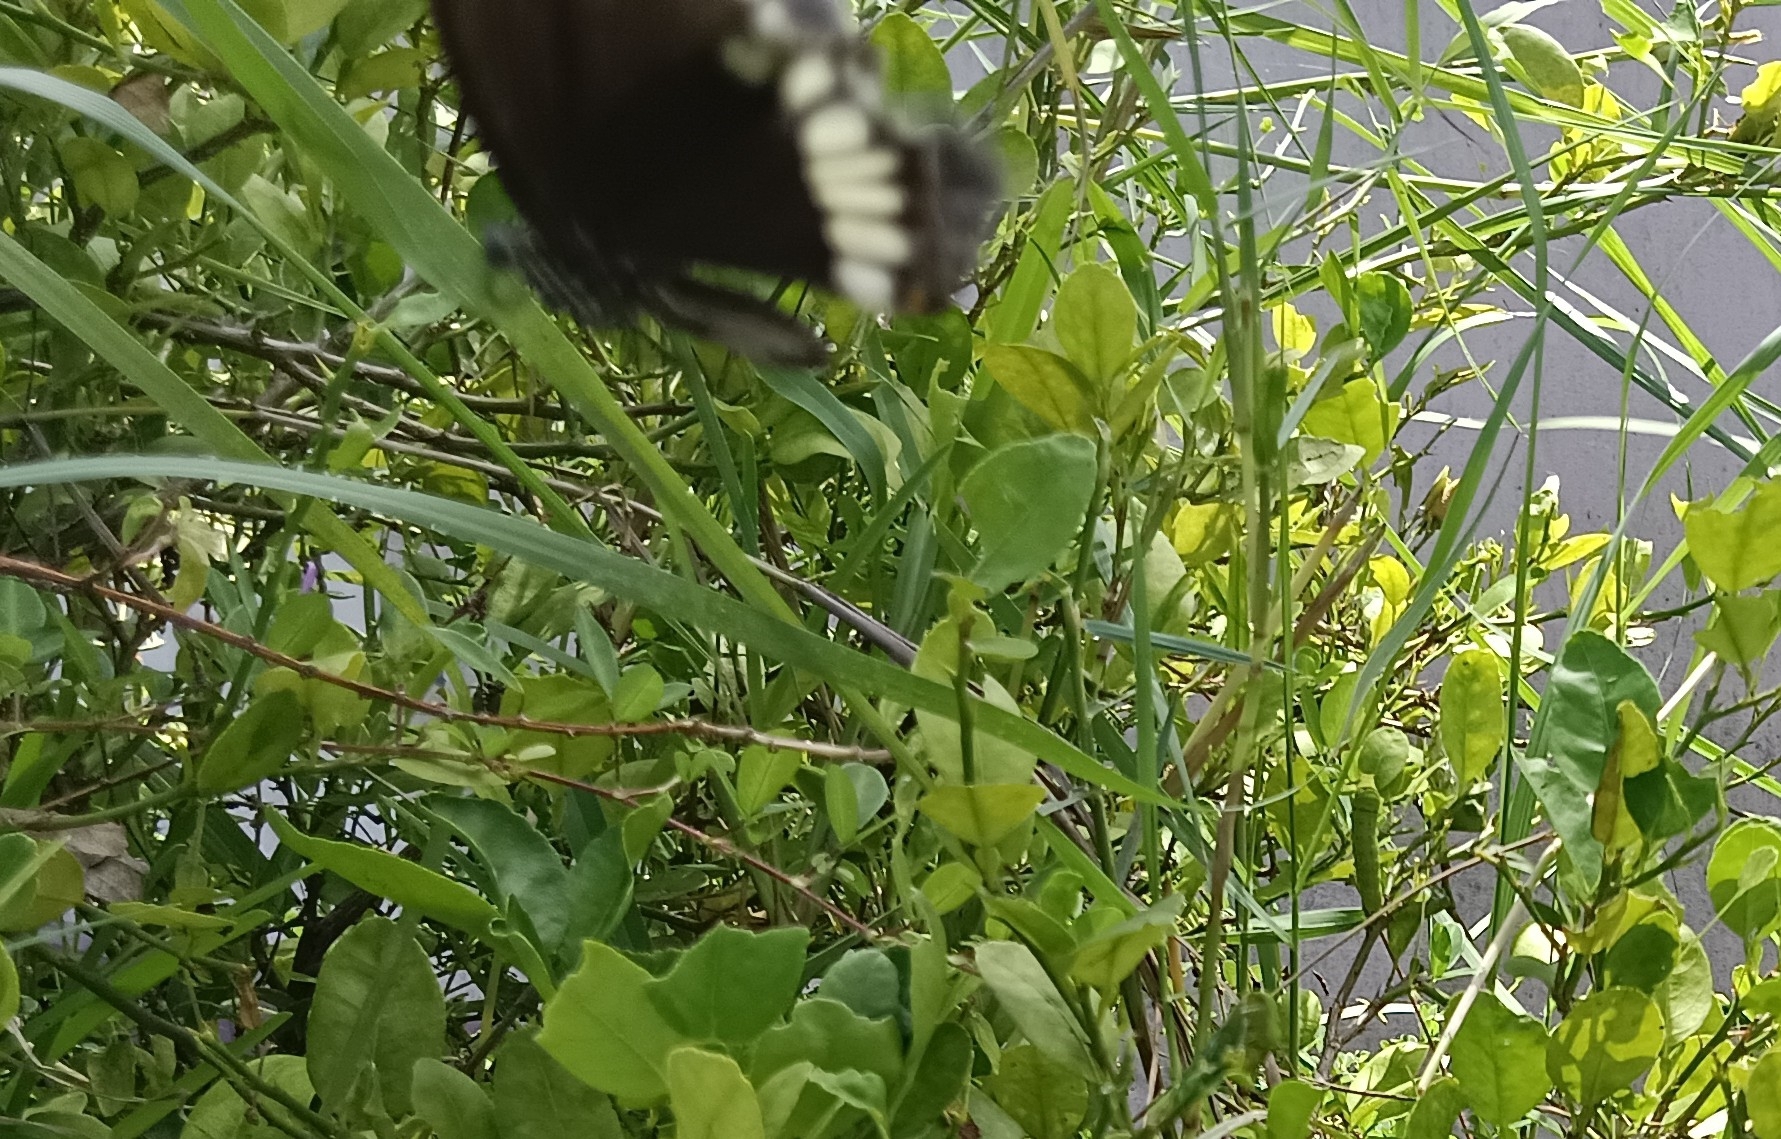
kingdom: Animalia
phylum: Arthropoda
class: Insecta
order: Lepidoptera
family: Papilionidae
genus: Papilio
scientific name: Papilio polytes
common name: Common mormon
